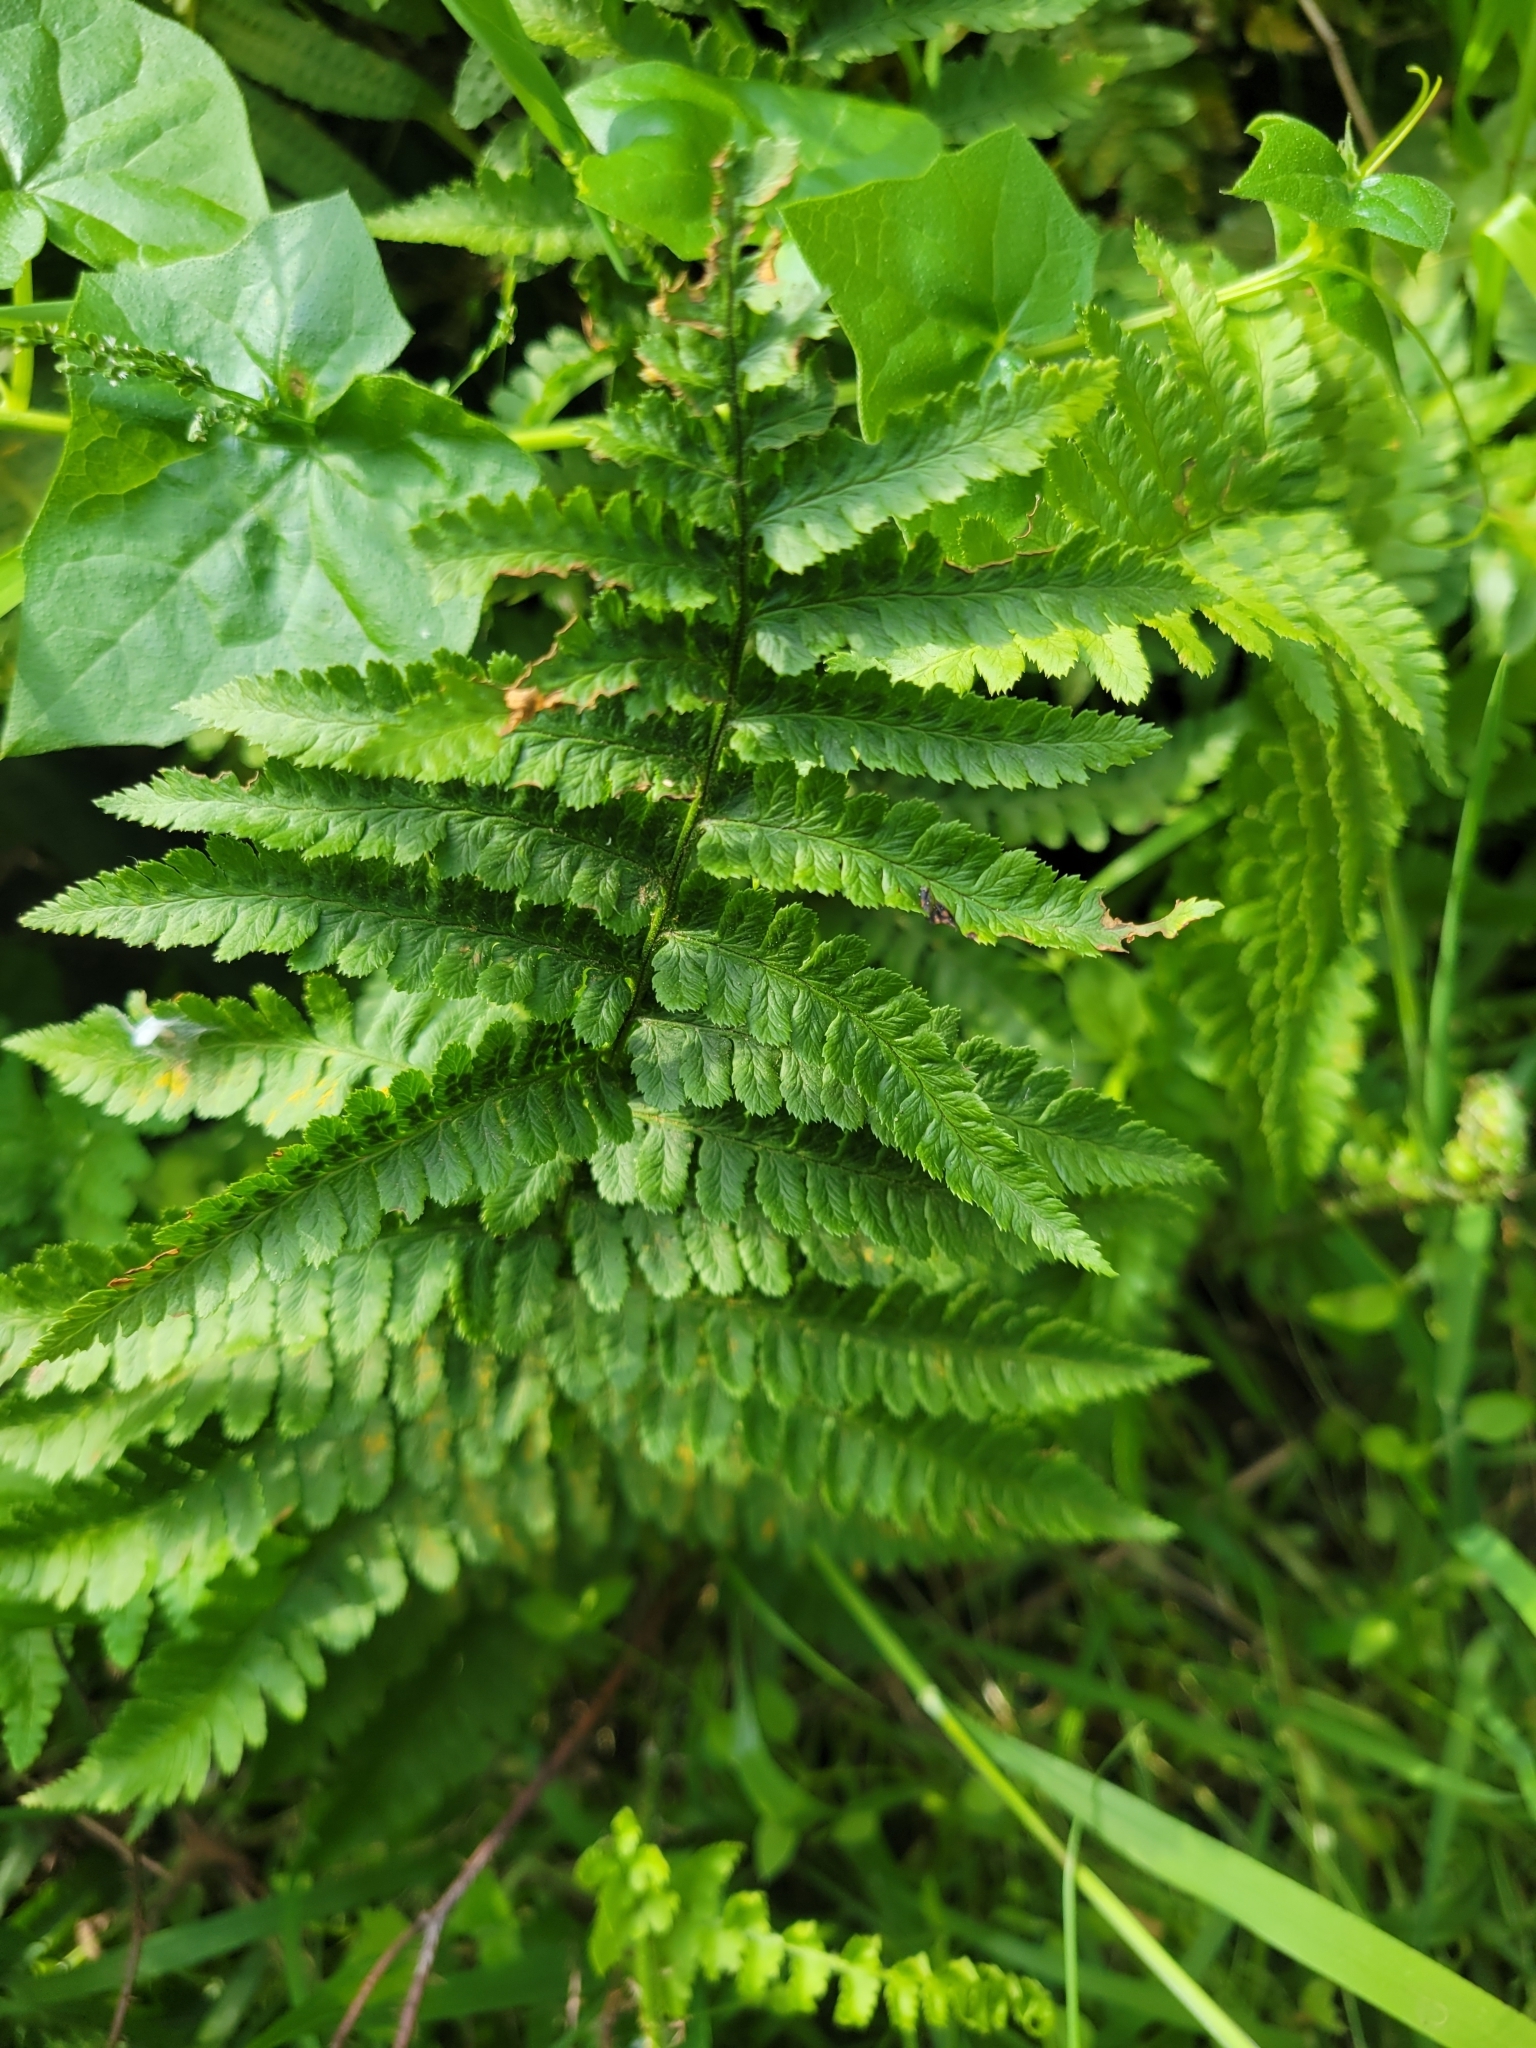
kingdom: Plantae
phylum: Tracheophyta
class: Polypodiopsida
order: Polypodiales
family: Dryopteridaceae
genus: Dryopteris
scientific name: Dryopteris arguta
